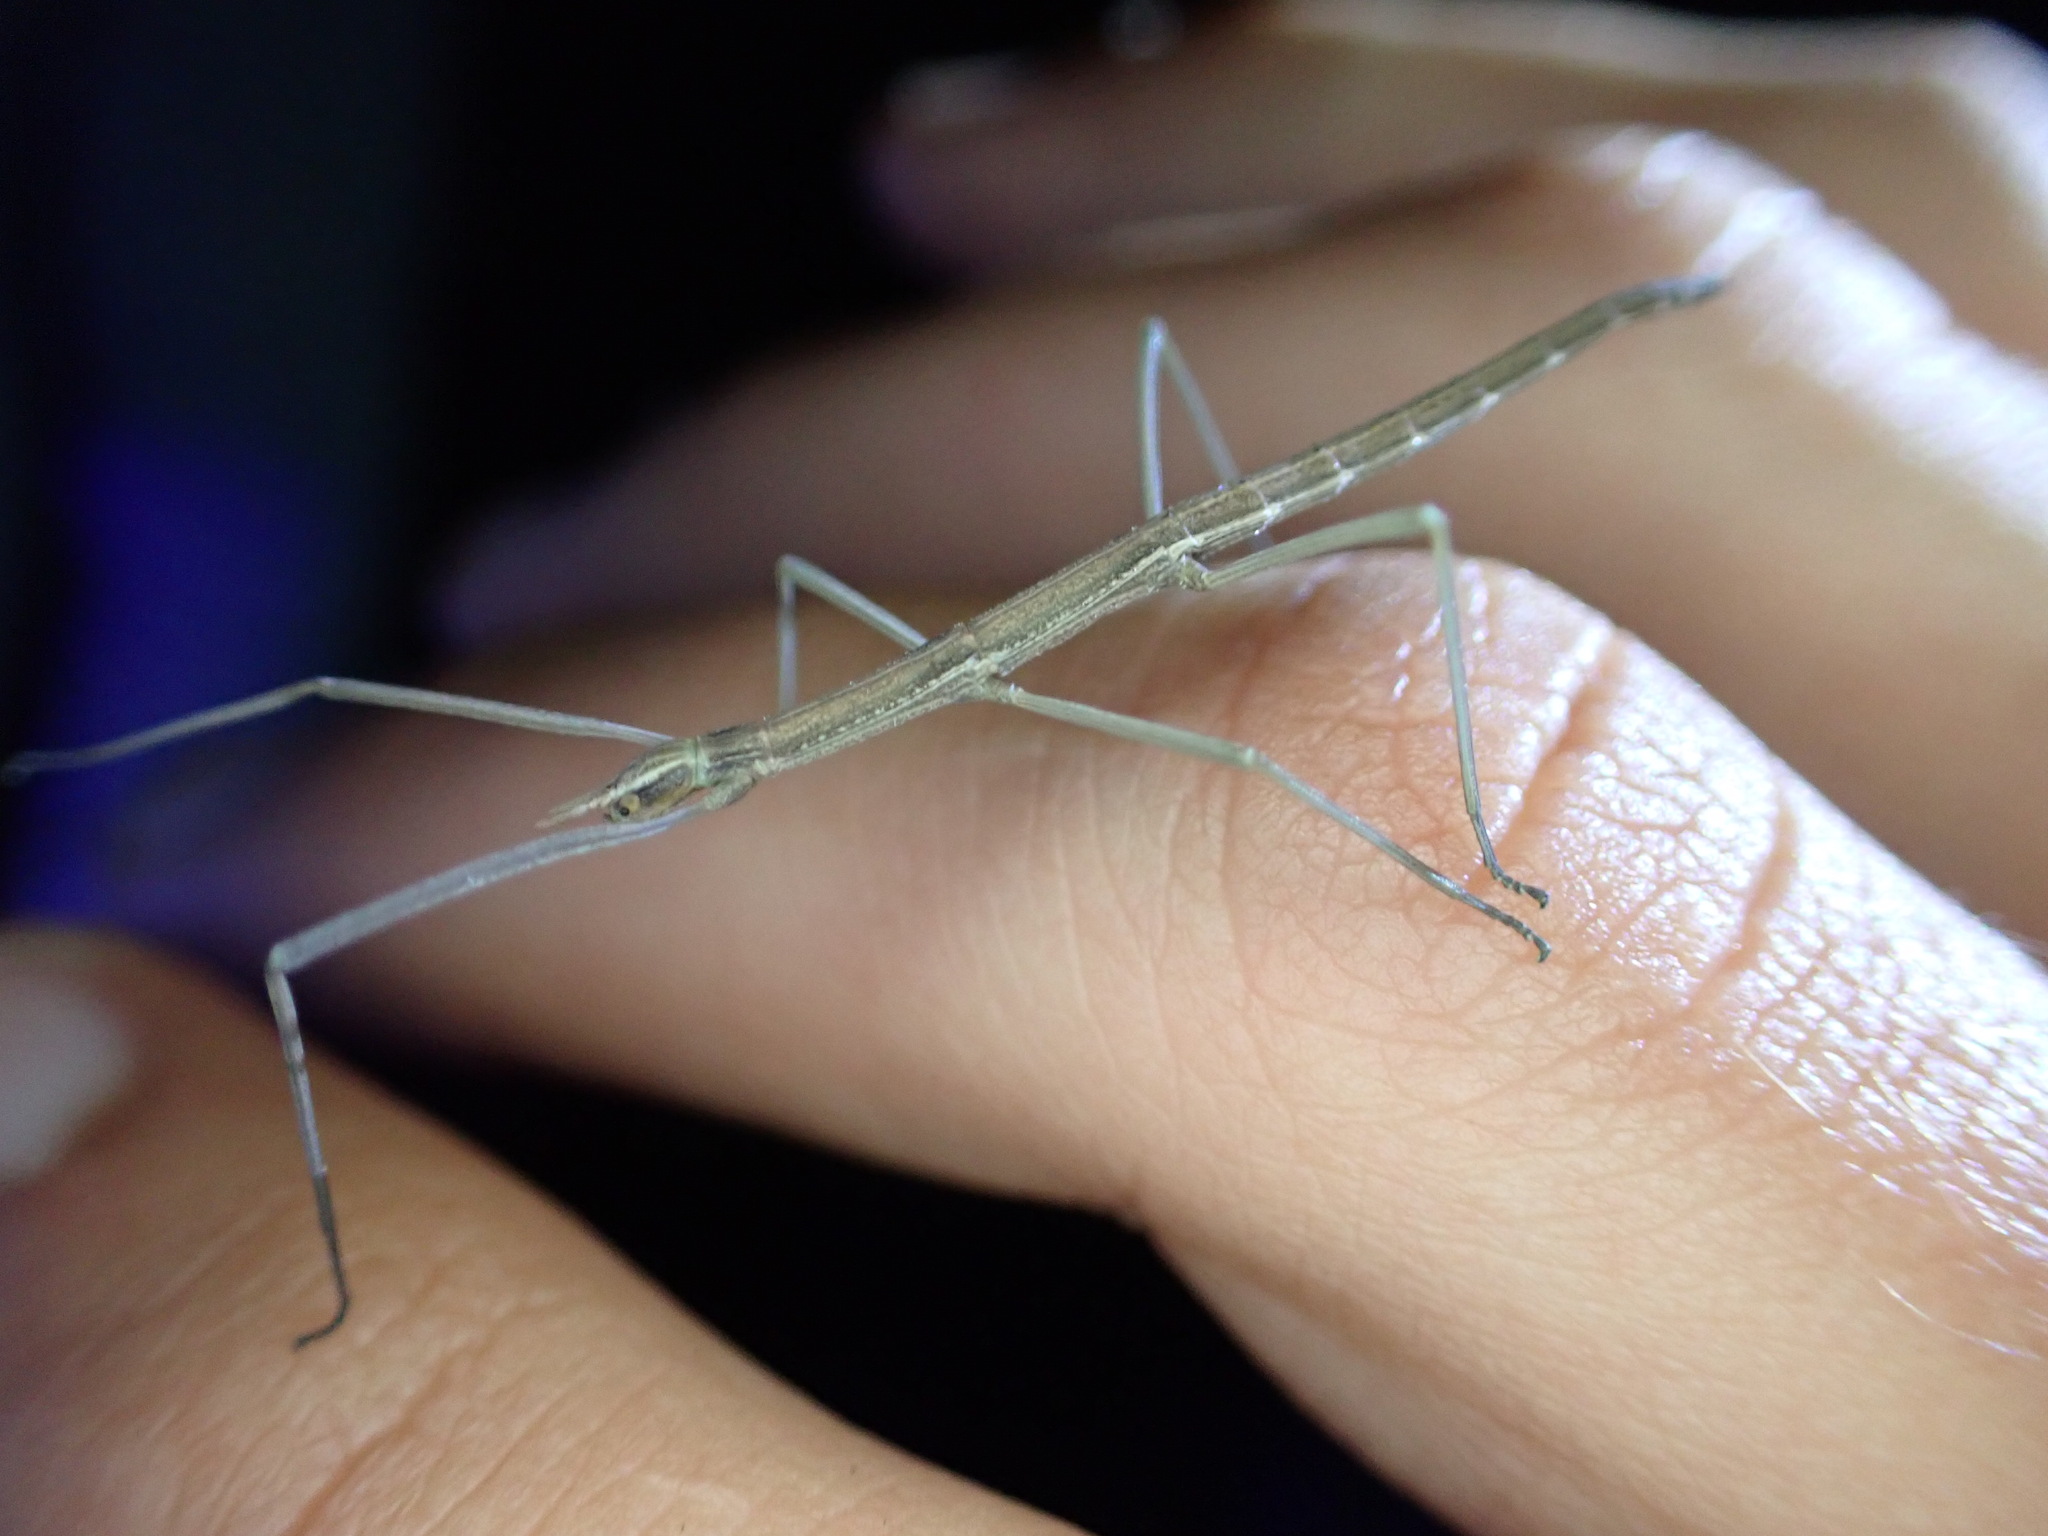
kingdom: Animalia
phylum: Arthropoda
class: Insecta
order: Phasmida
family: Bacillidae
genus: Pijnackeria
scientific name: Pijnackeria masettii
